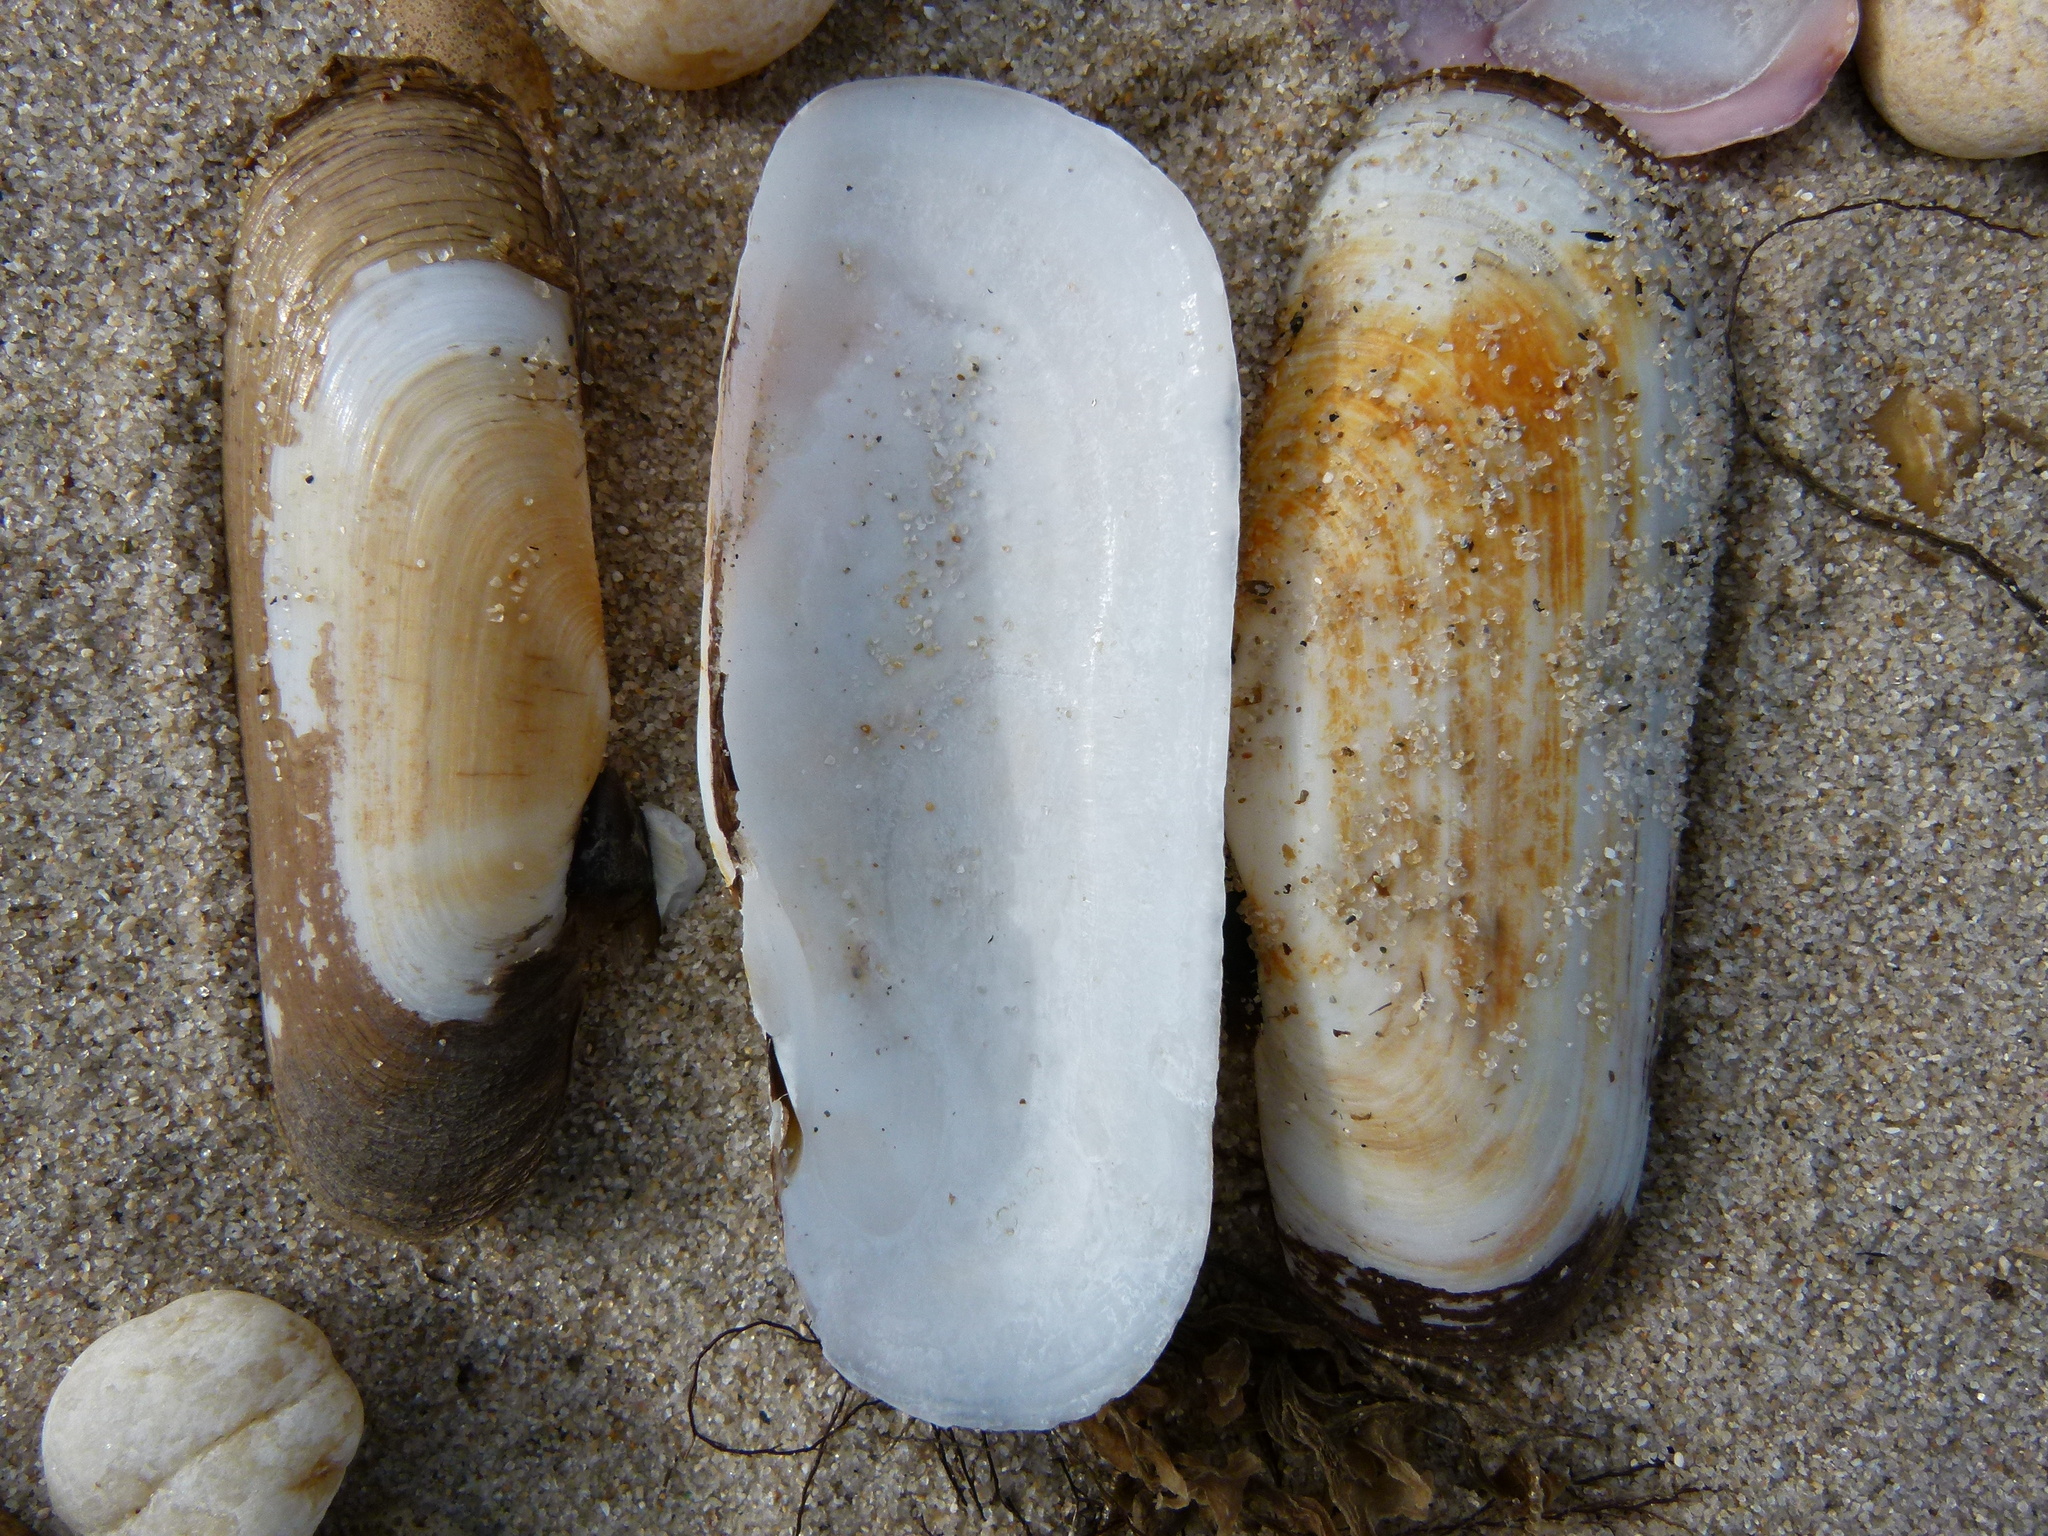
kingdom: Animalia
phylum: Mollusca
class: Bivalvia
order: Cardiida
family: Solecurtidae
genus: Tagelus
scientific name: Tagelus plebeius
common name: Stout tagelus
